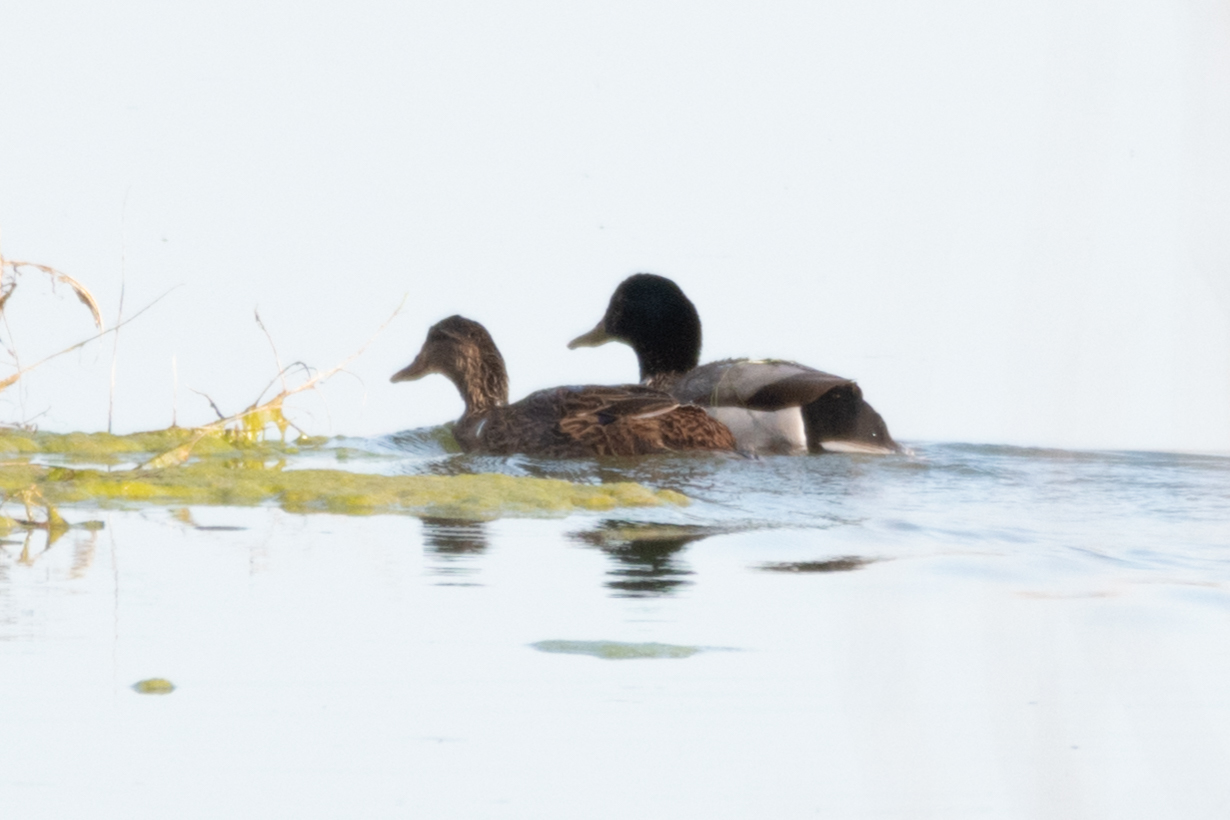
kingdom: Animalia
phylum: Chordata
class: Aves
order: Anseriformes
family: Anatidae
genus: Anas
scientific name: Anas platyrhynchos
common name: Mallard
